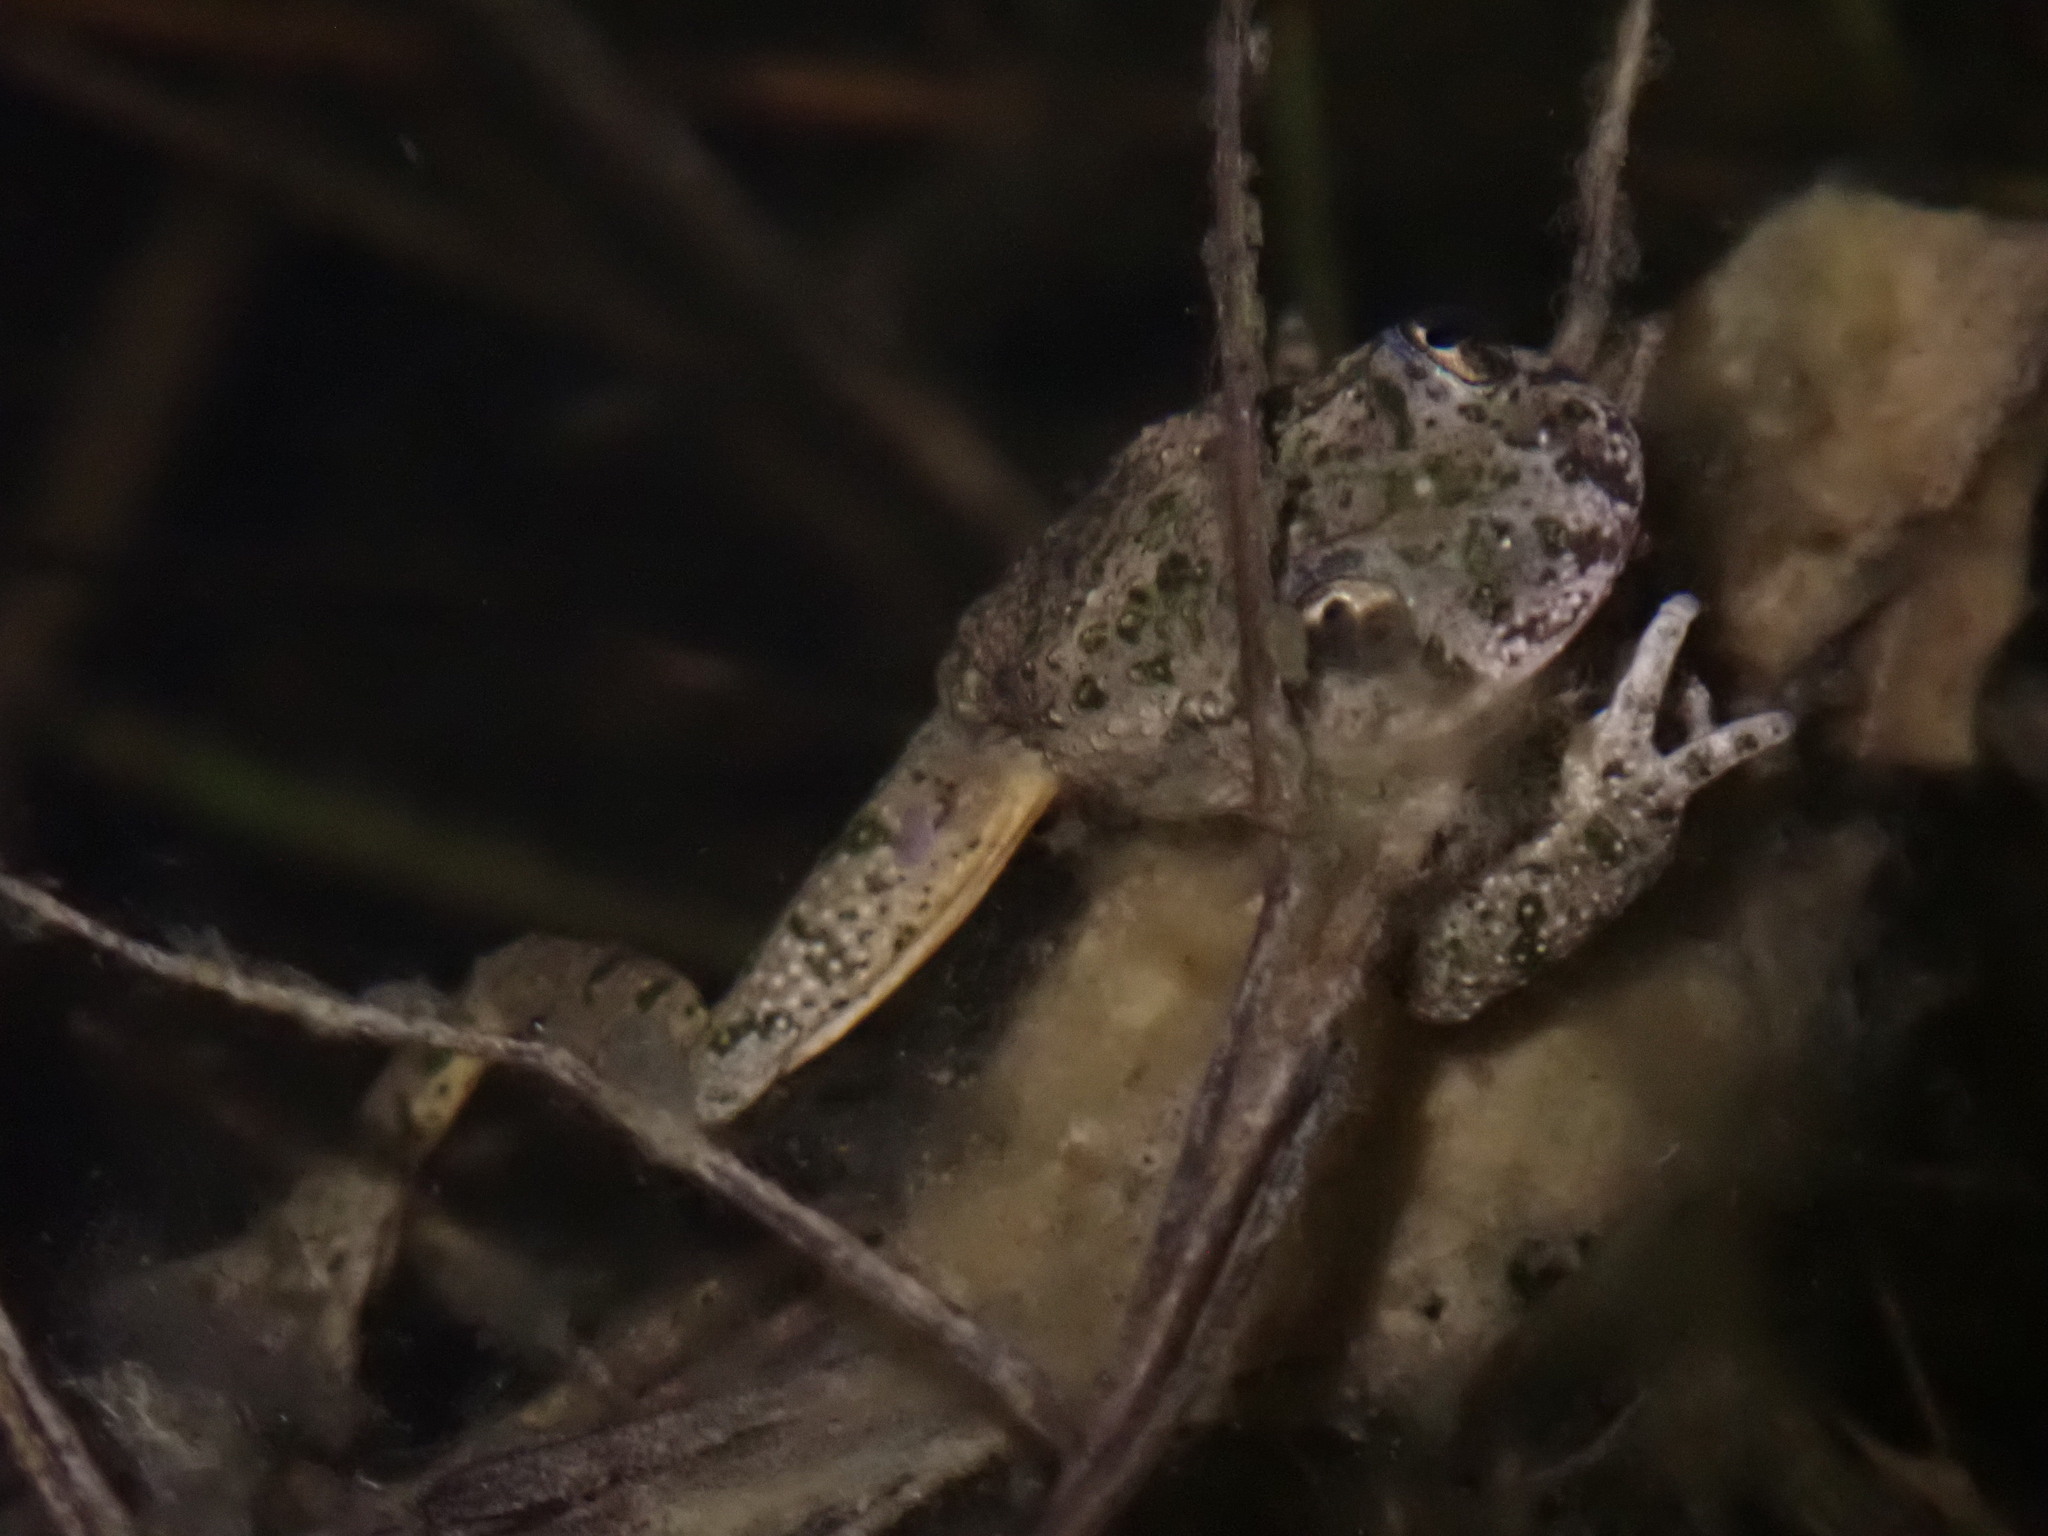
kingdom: Animalia
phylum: Chordata
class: Amphibia
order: Anura
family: Pelodytidae
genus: Pelodytes
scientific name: Pelodytes punctatus
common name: Parsley frog
